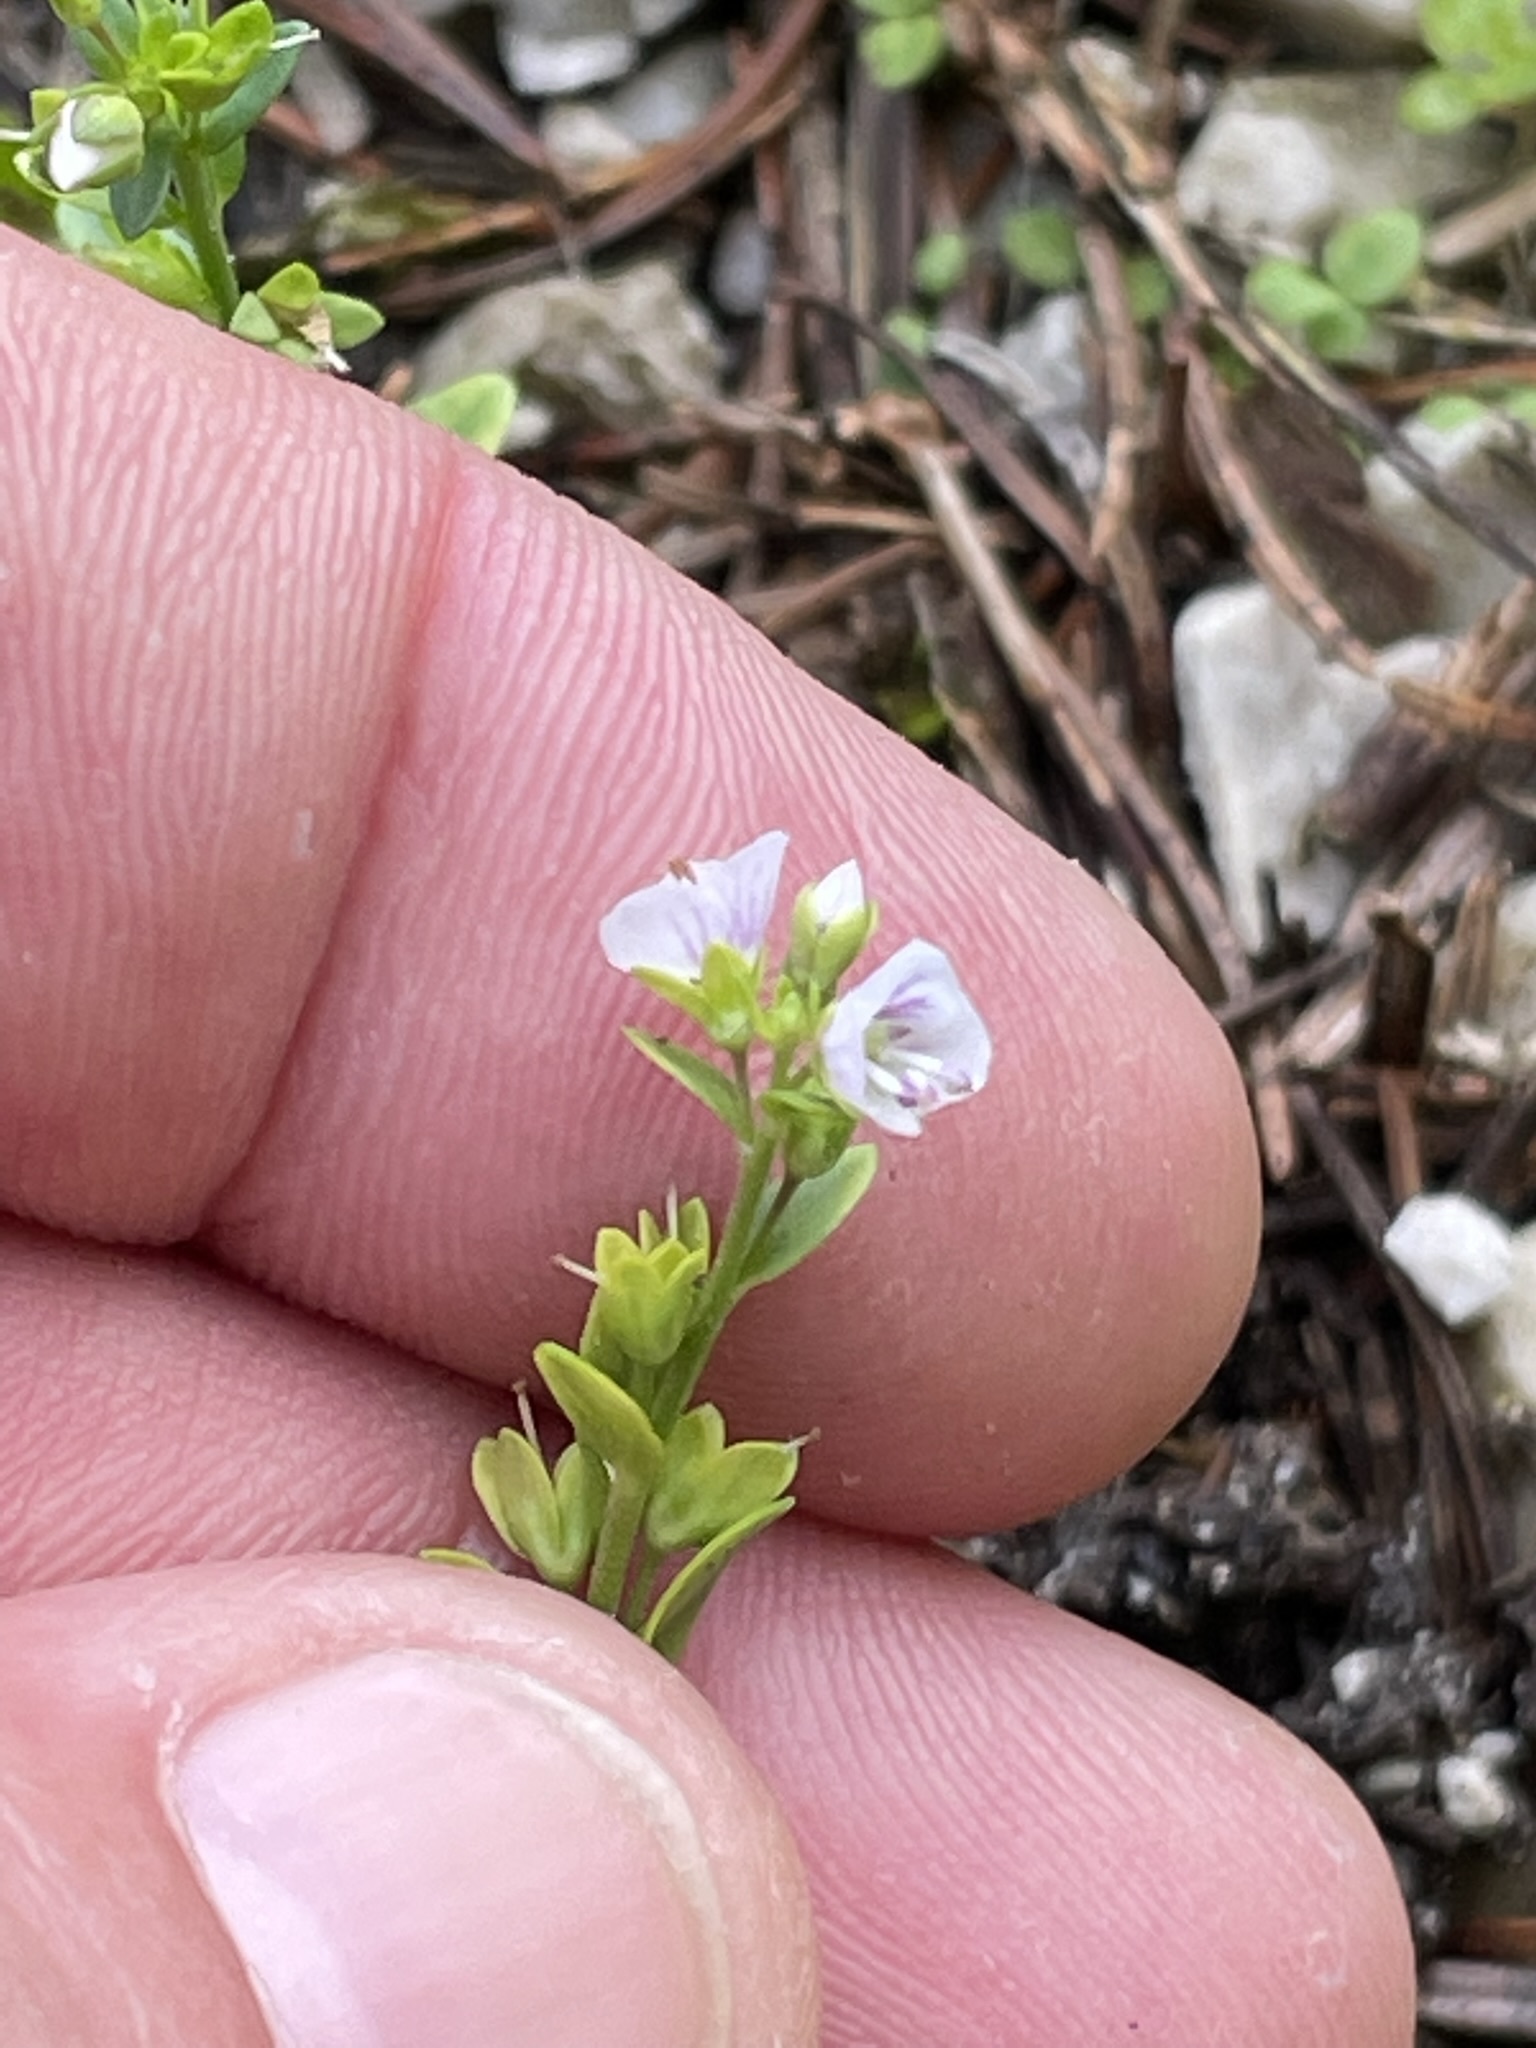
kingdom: Plantae
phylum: Tracheophyta
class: Magnoliopsida
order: Lamiales
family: Plantaginaceae
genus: Veronica
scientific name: Veronica serpyllifolia
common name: Thyme-leaved speedwell
